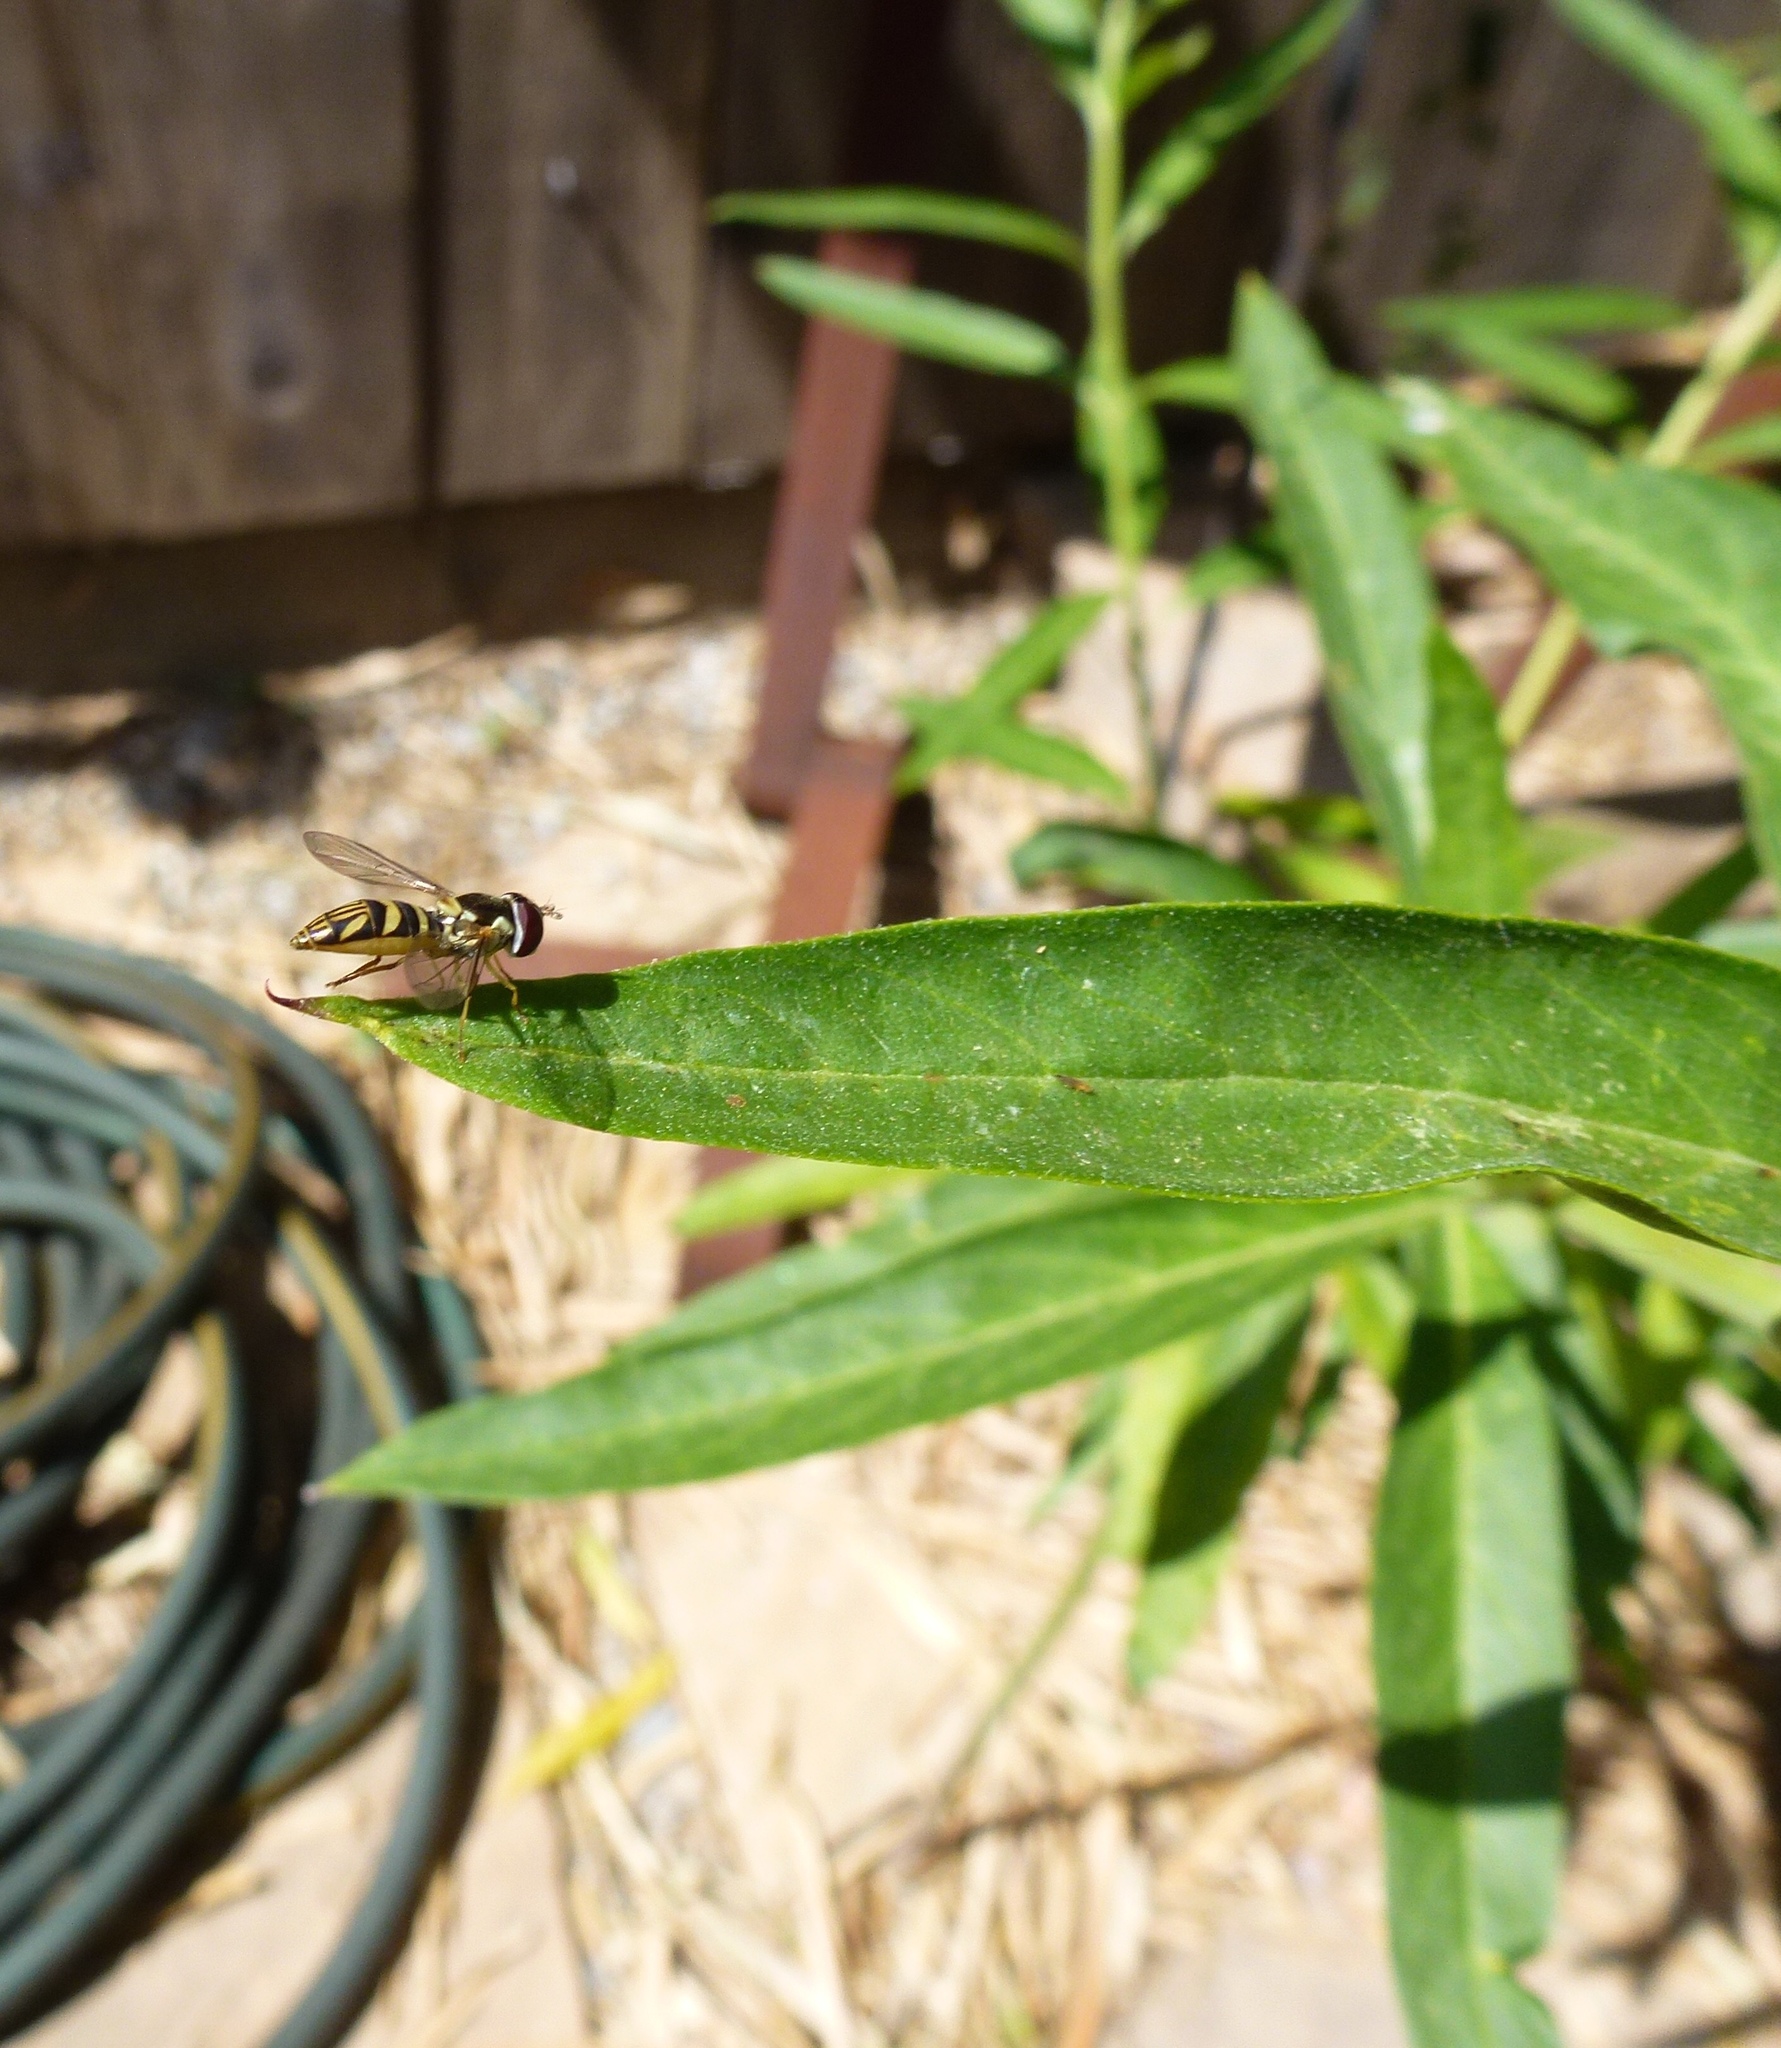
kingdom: Animalia
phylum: Arthropoda
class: Insecta
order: Diptera
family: Syrphidae
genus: Allograpta
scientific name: Allograpta obliqua
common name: Common oblique syrphid
